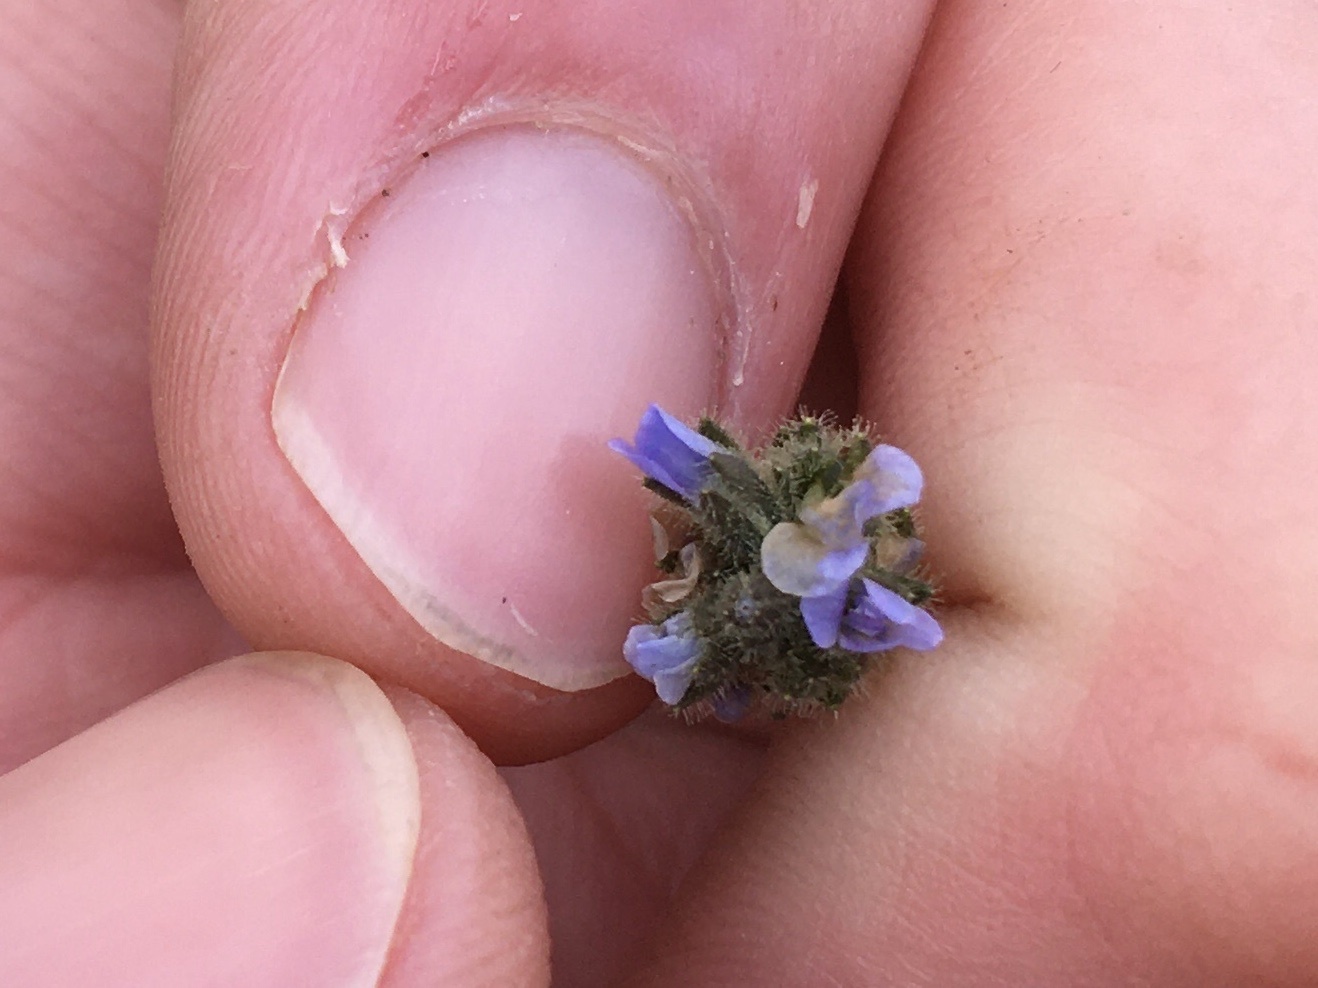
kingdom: Plantae
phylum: Tracheophyta
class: Magnoliopsida
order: Lamiales
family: Plantaginaceae
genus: Veronica
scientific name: Veronica wormskjoldii
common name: American alpine speedwell
